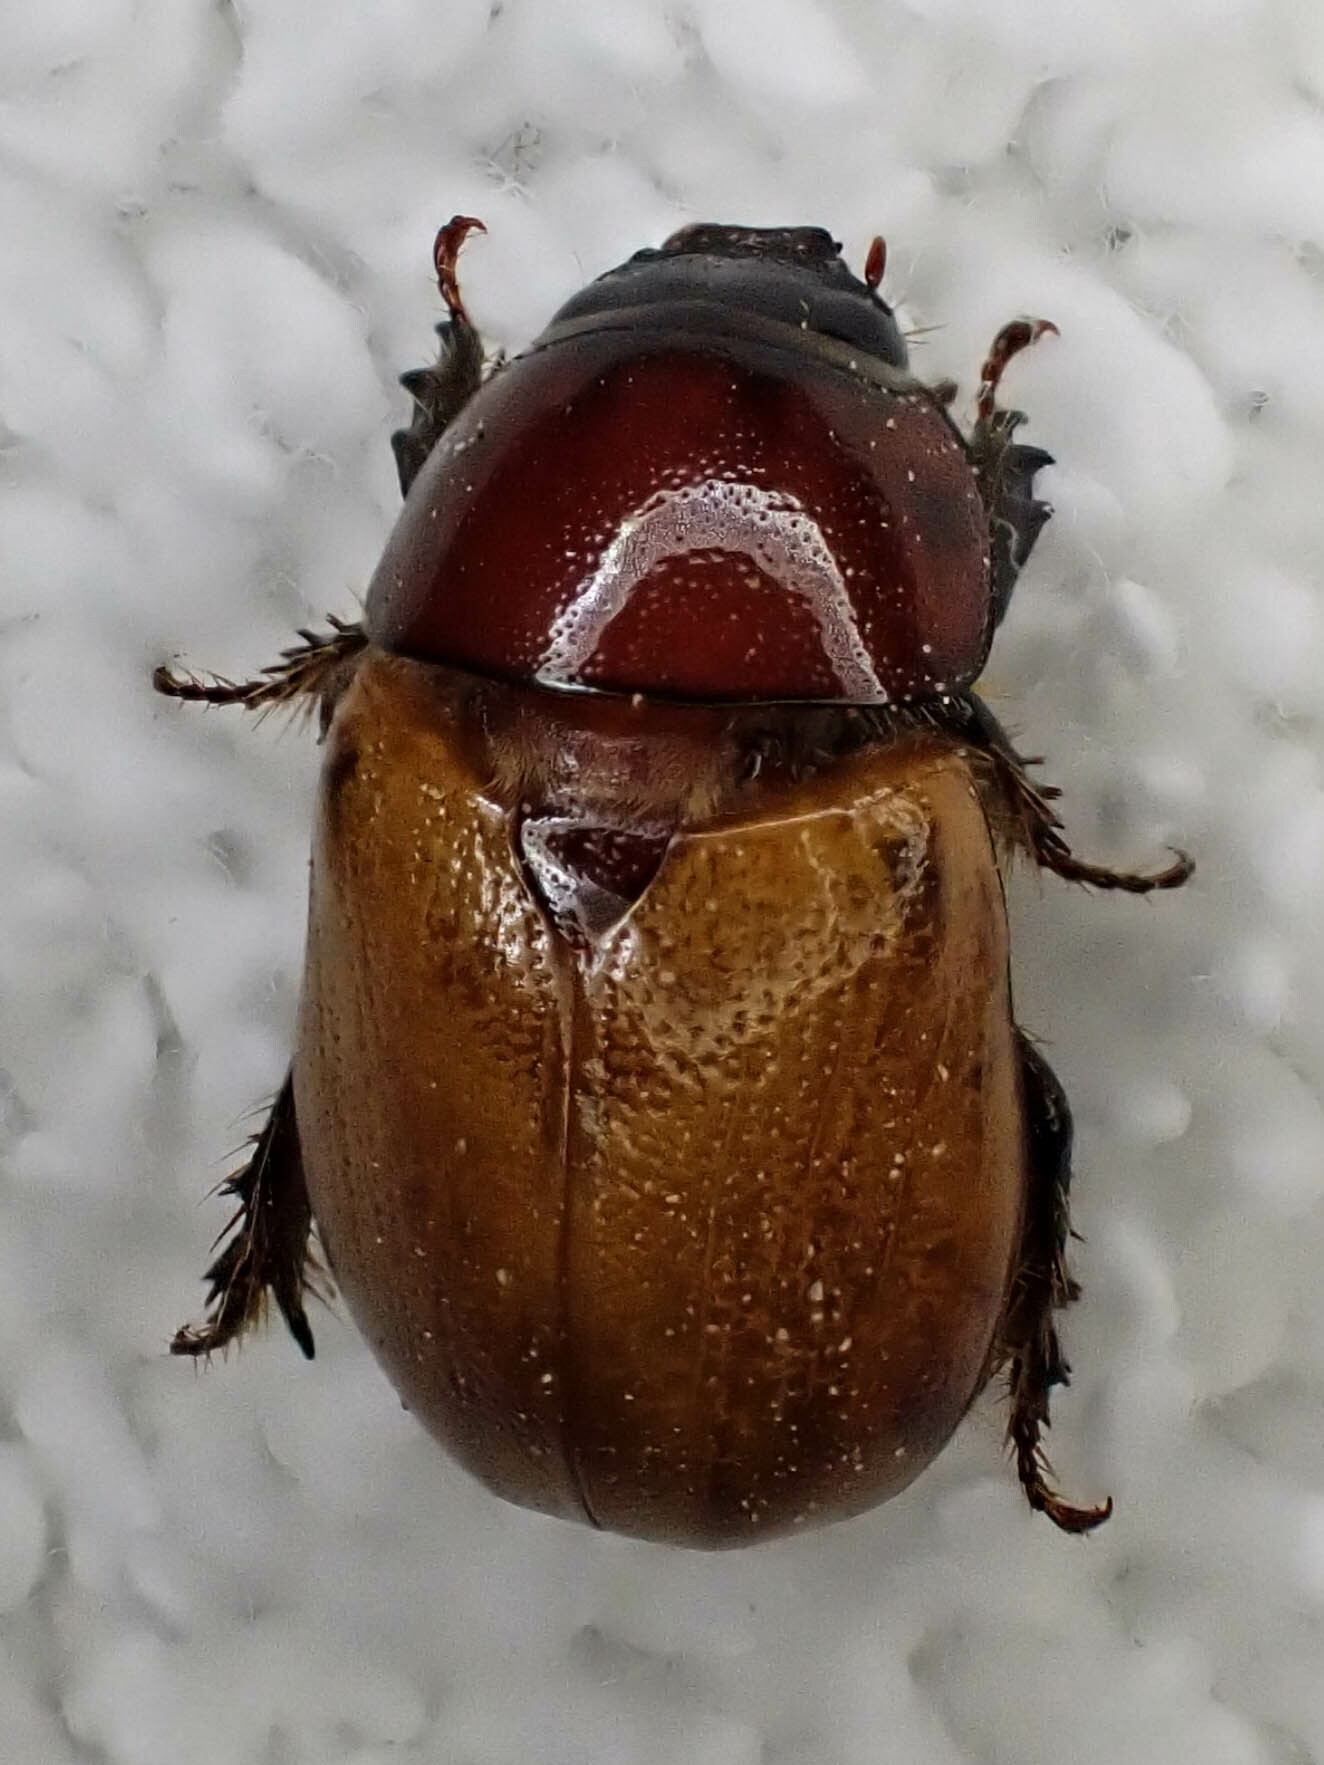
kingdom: Animalia
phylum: Arthropoda
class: Insecta
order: Coleoptera
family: Scarabaeidae
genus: Cyclocephala
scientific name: Cyclocephala melanocephala
